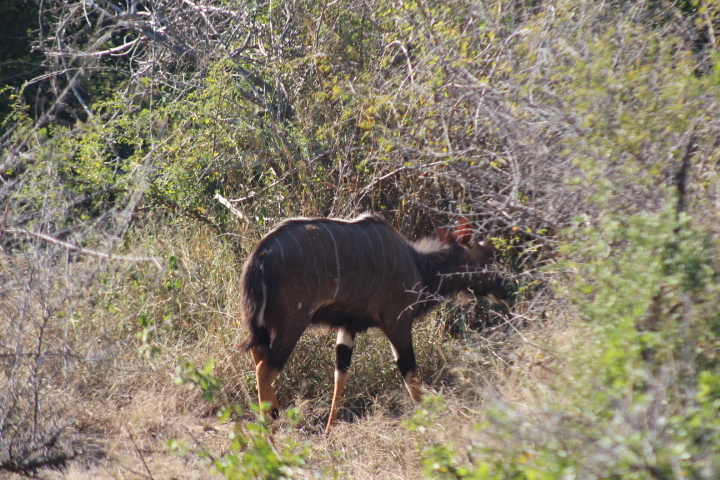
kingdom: Animalia
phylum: Chordata
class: Mammalia
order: Artiodactyla
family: Bovidae
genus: Tragelaphus
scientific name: Tragelaphus angasii
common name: Nyala
